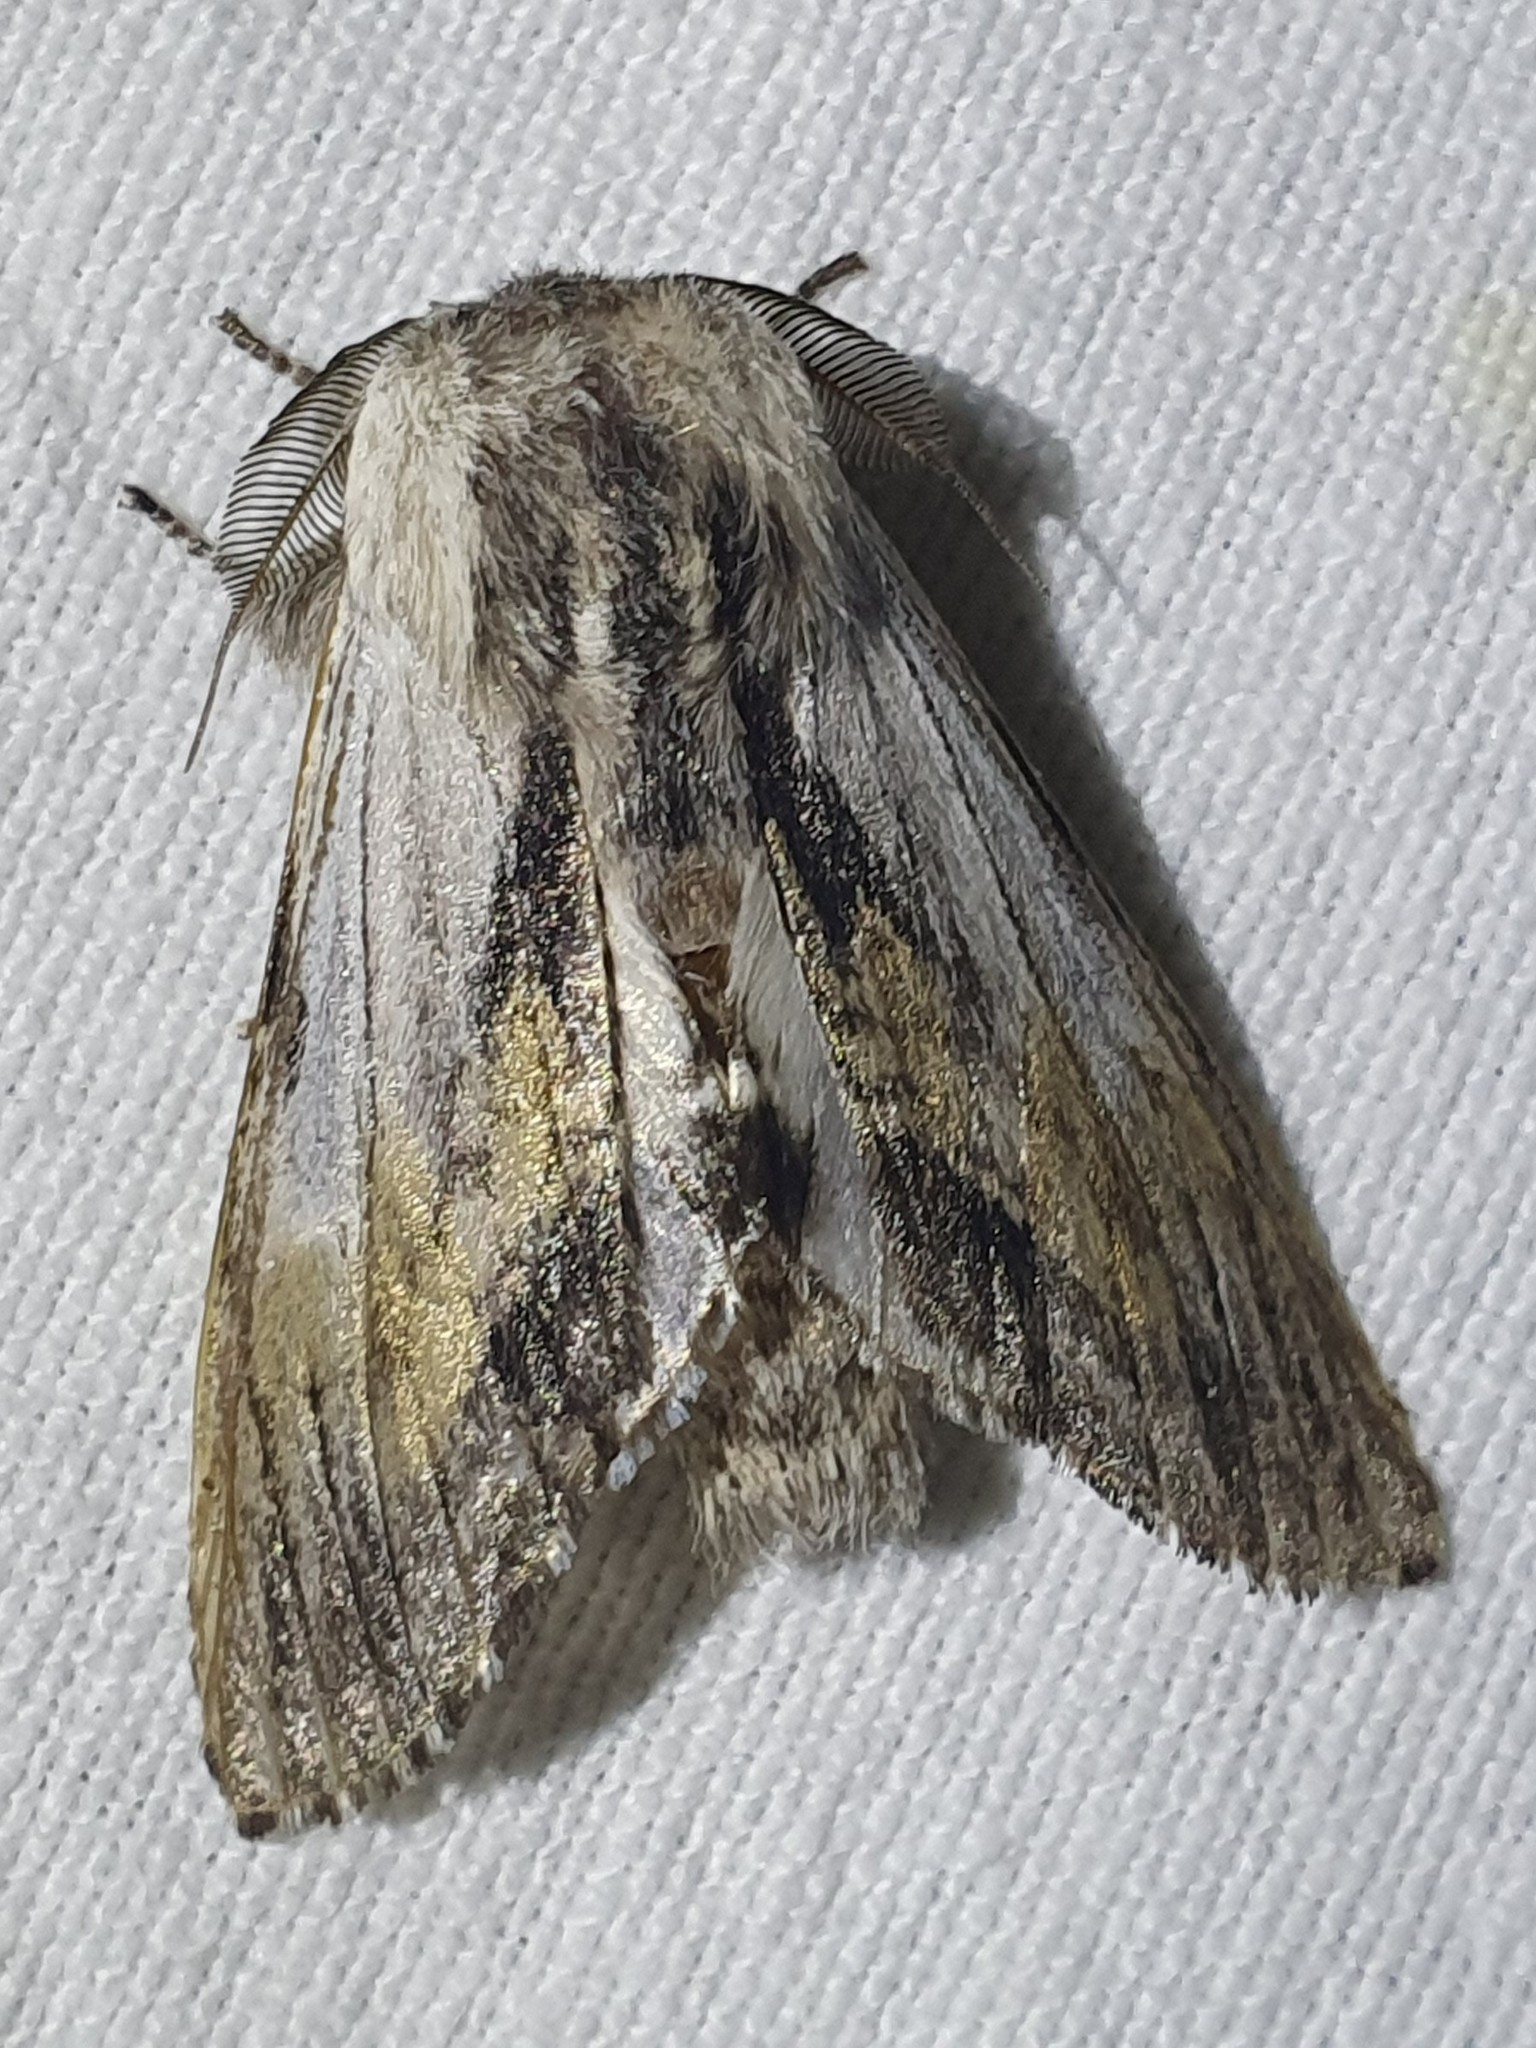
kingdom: Animalia
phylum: Arthropoda
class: Insecta
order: Lepidoptera
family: Notodontidae
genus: Harpyia
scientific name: Harpyia milhauseri
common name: Tawny prominent
